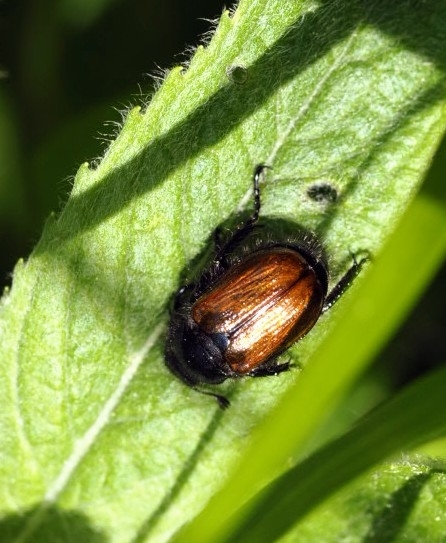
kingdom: Animalia
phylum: Arthropoda
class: Insecta
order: Coleoptera
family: Scarabaeidae
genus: Phyllopertha
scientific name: Phyllopertha horticola
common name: Garden chafer
